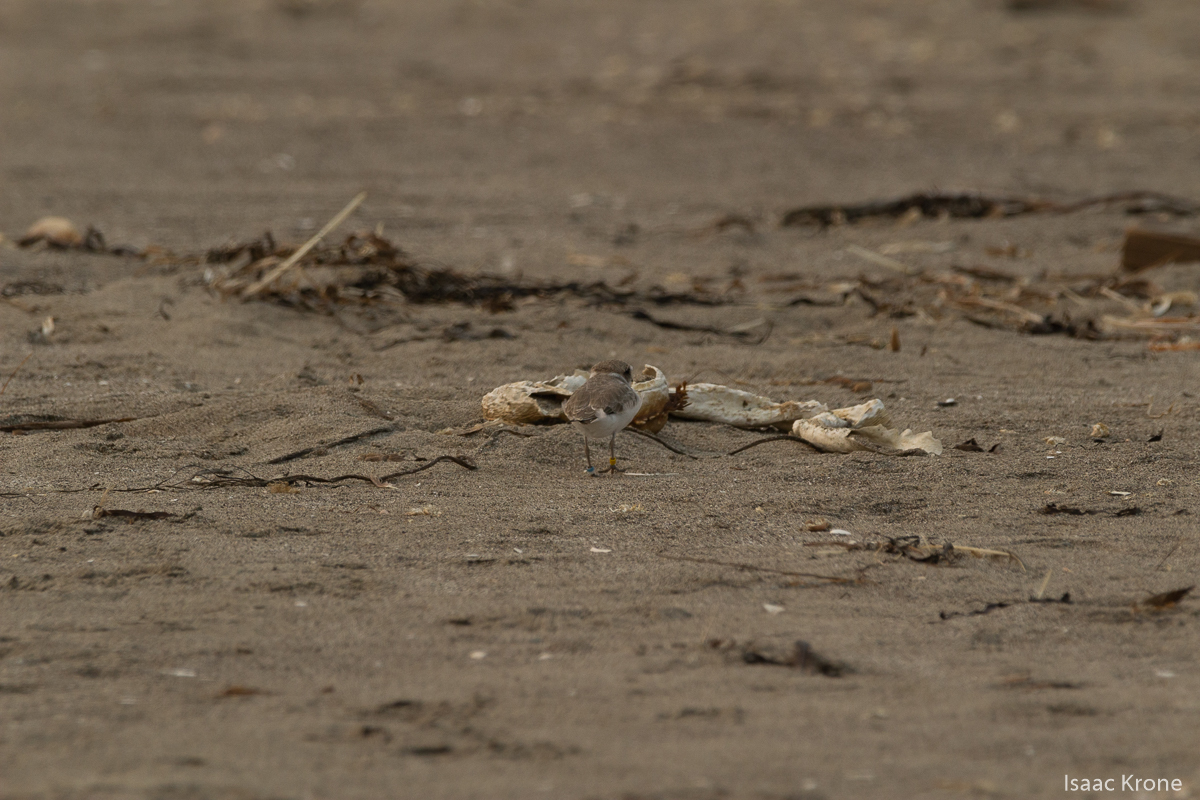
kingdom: Animalia
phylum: Chordata
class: Aves
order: Charadriiformes
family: Charadriidae
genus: Anarhynchus
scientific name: Anarhynchus
